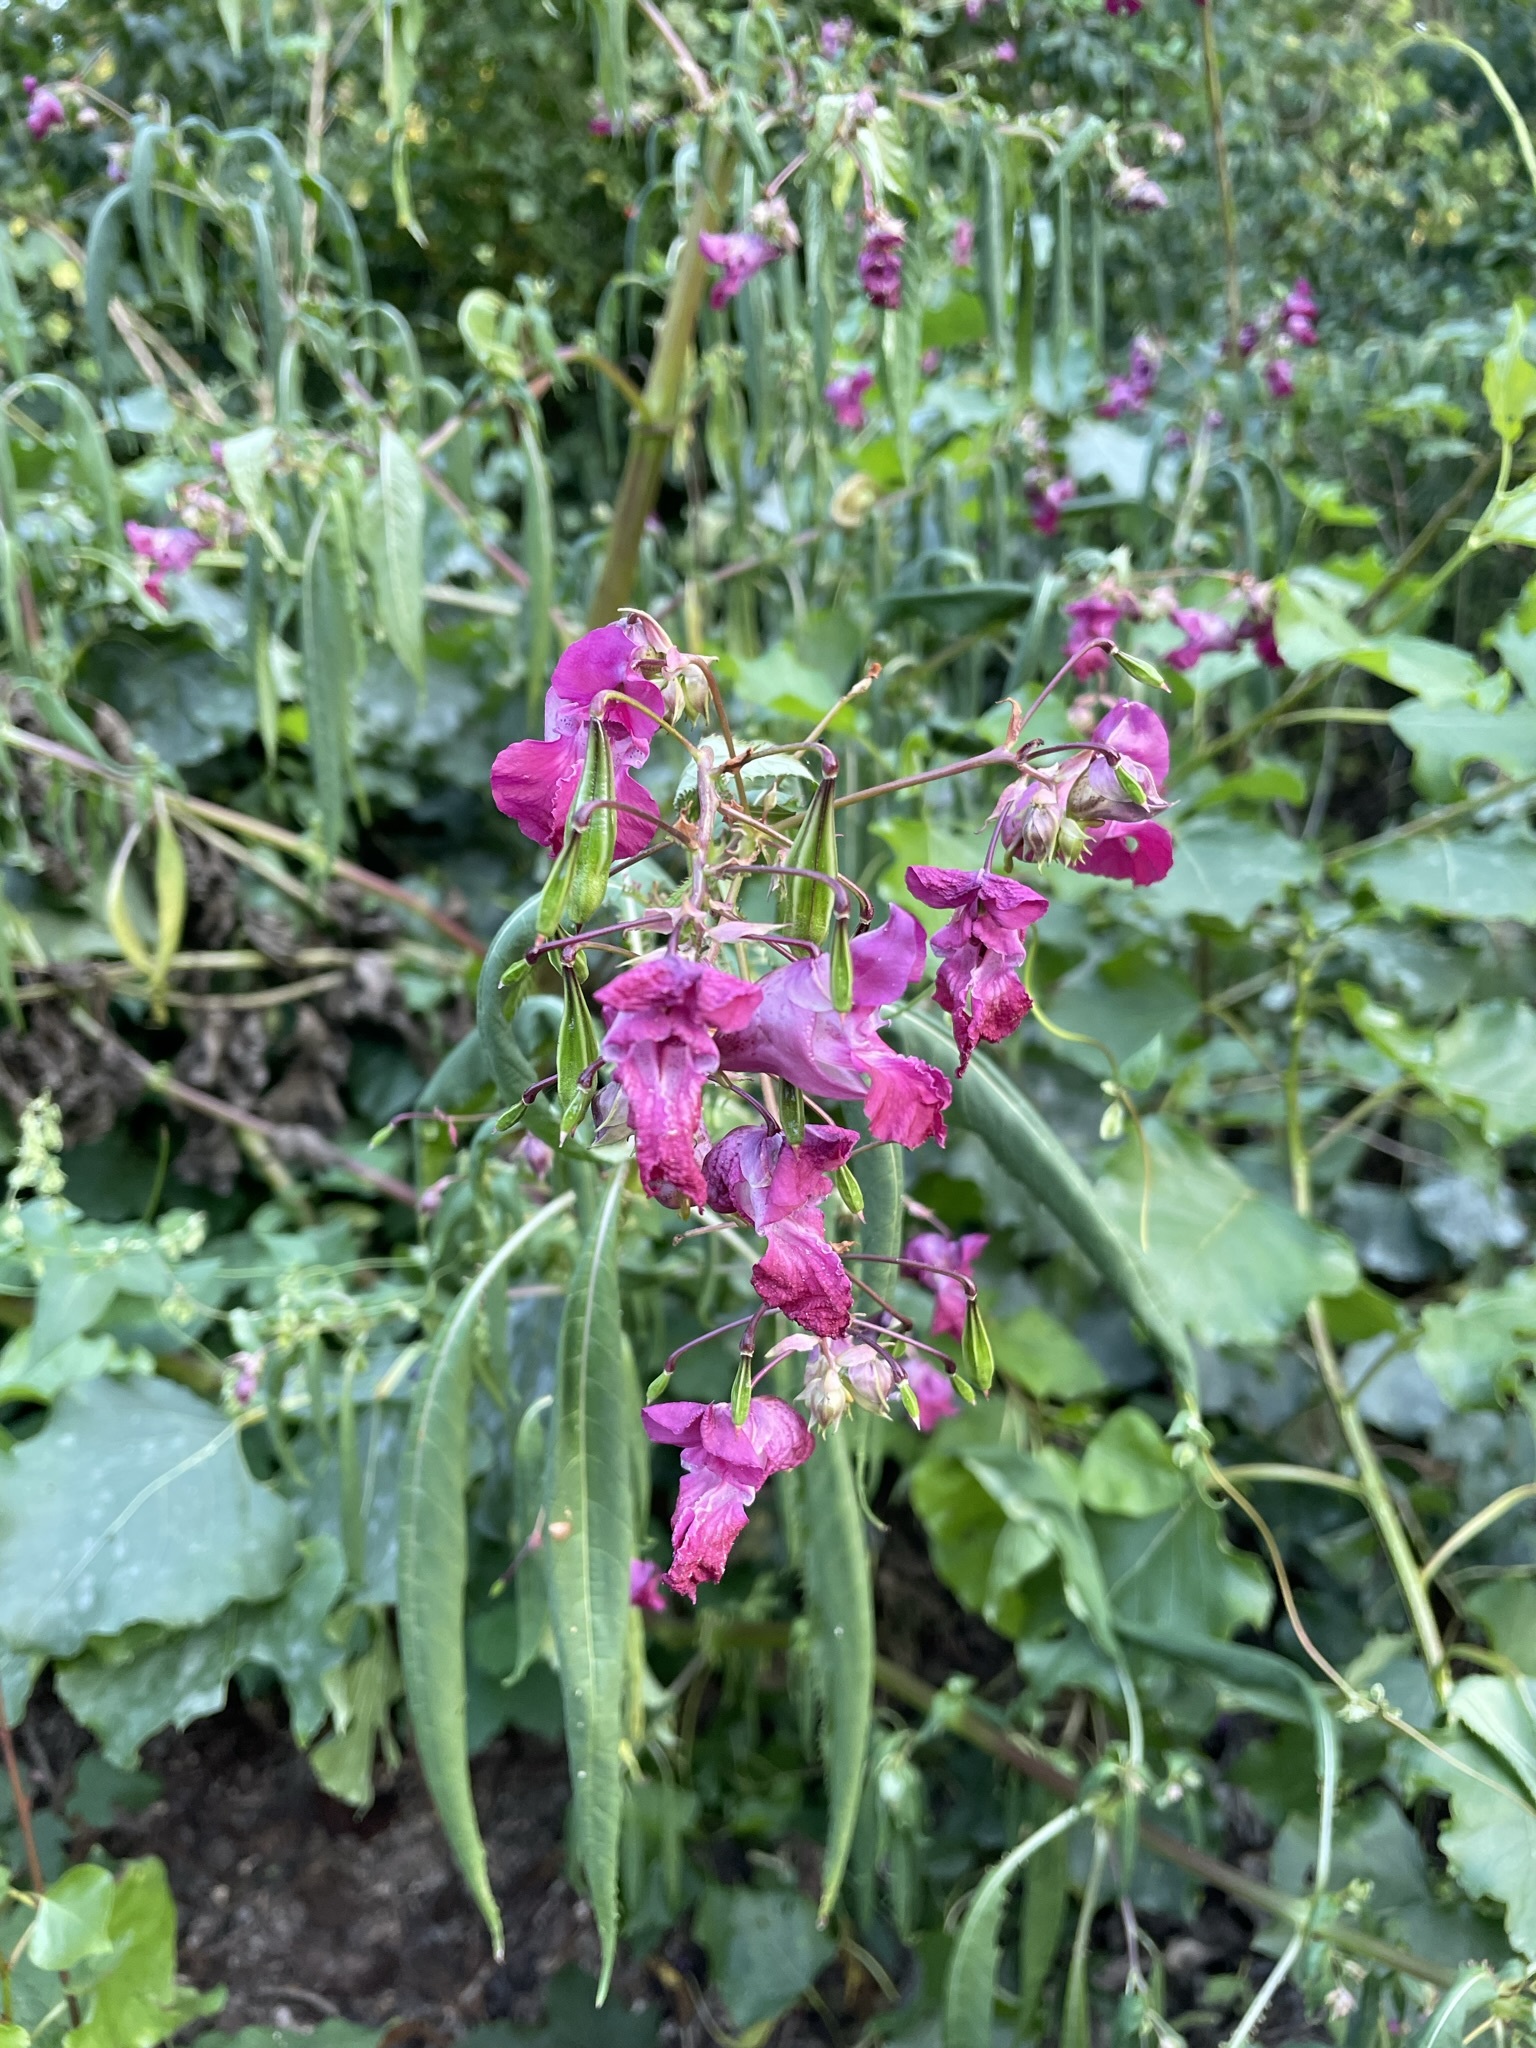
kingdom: Plantae
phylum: Tracheophyta
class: Magnoliopsida
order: Ericales
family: Balsaminaceae
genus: Impatiens
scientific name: Impatiens glandulifera
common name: Himalayan balsam
